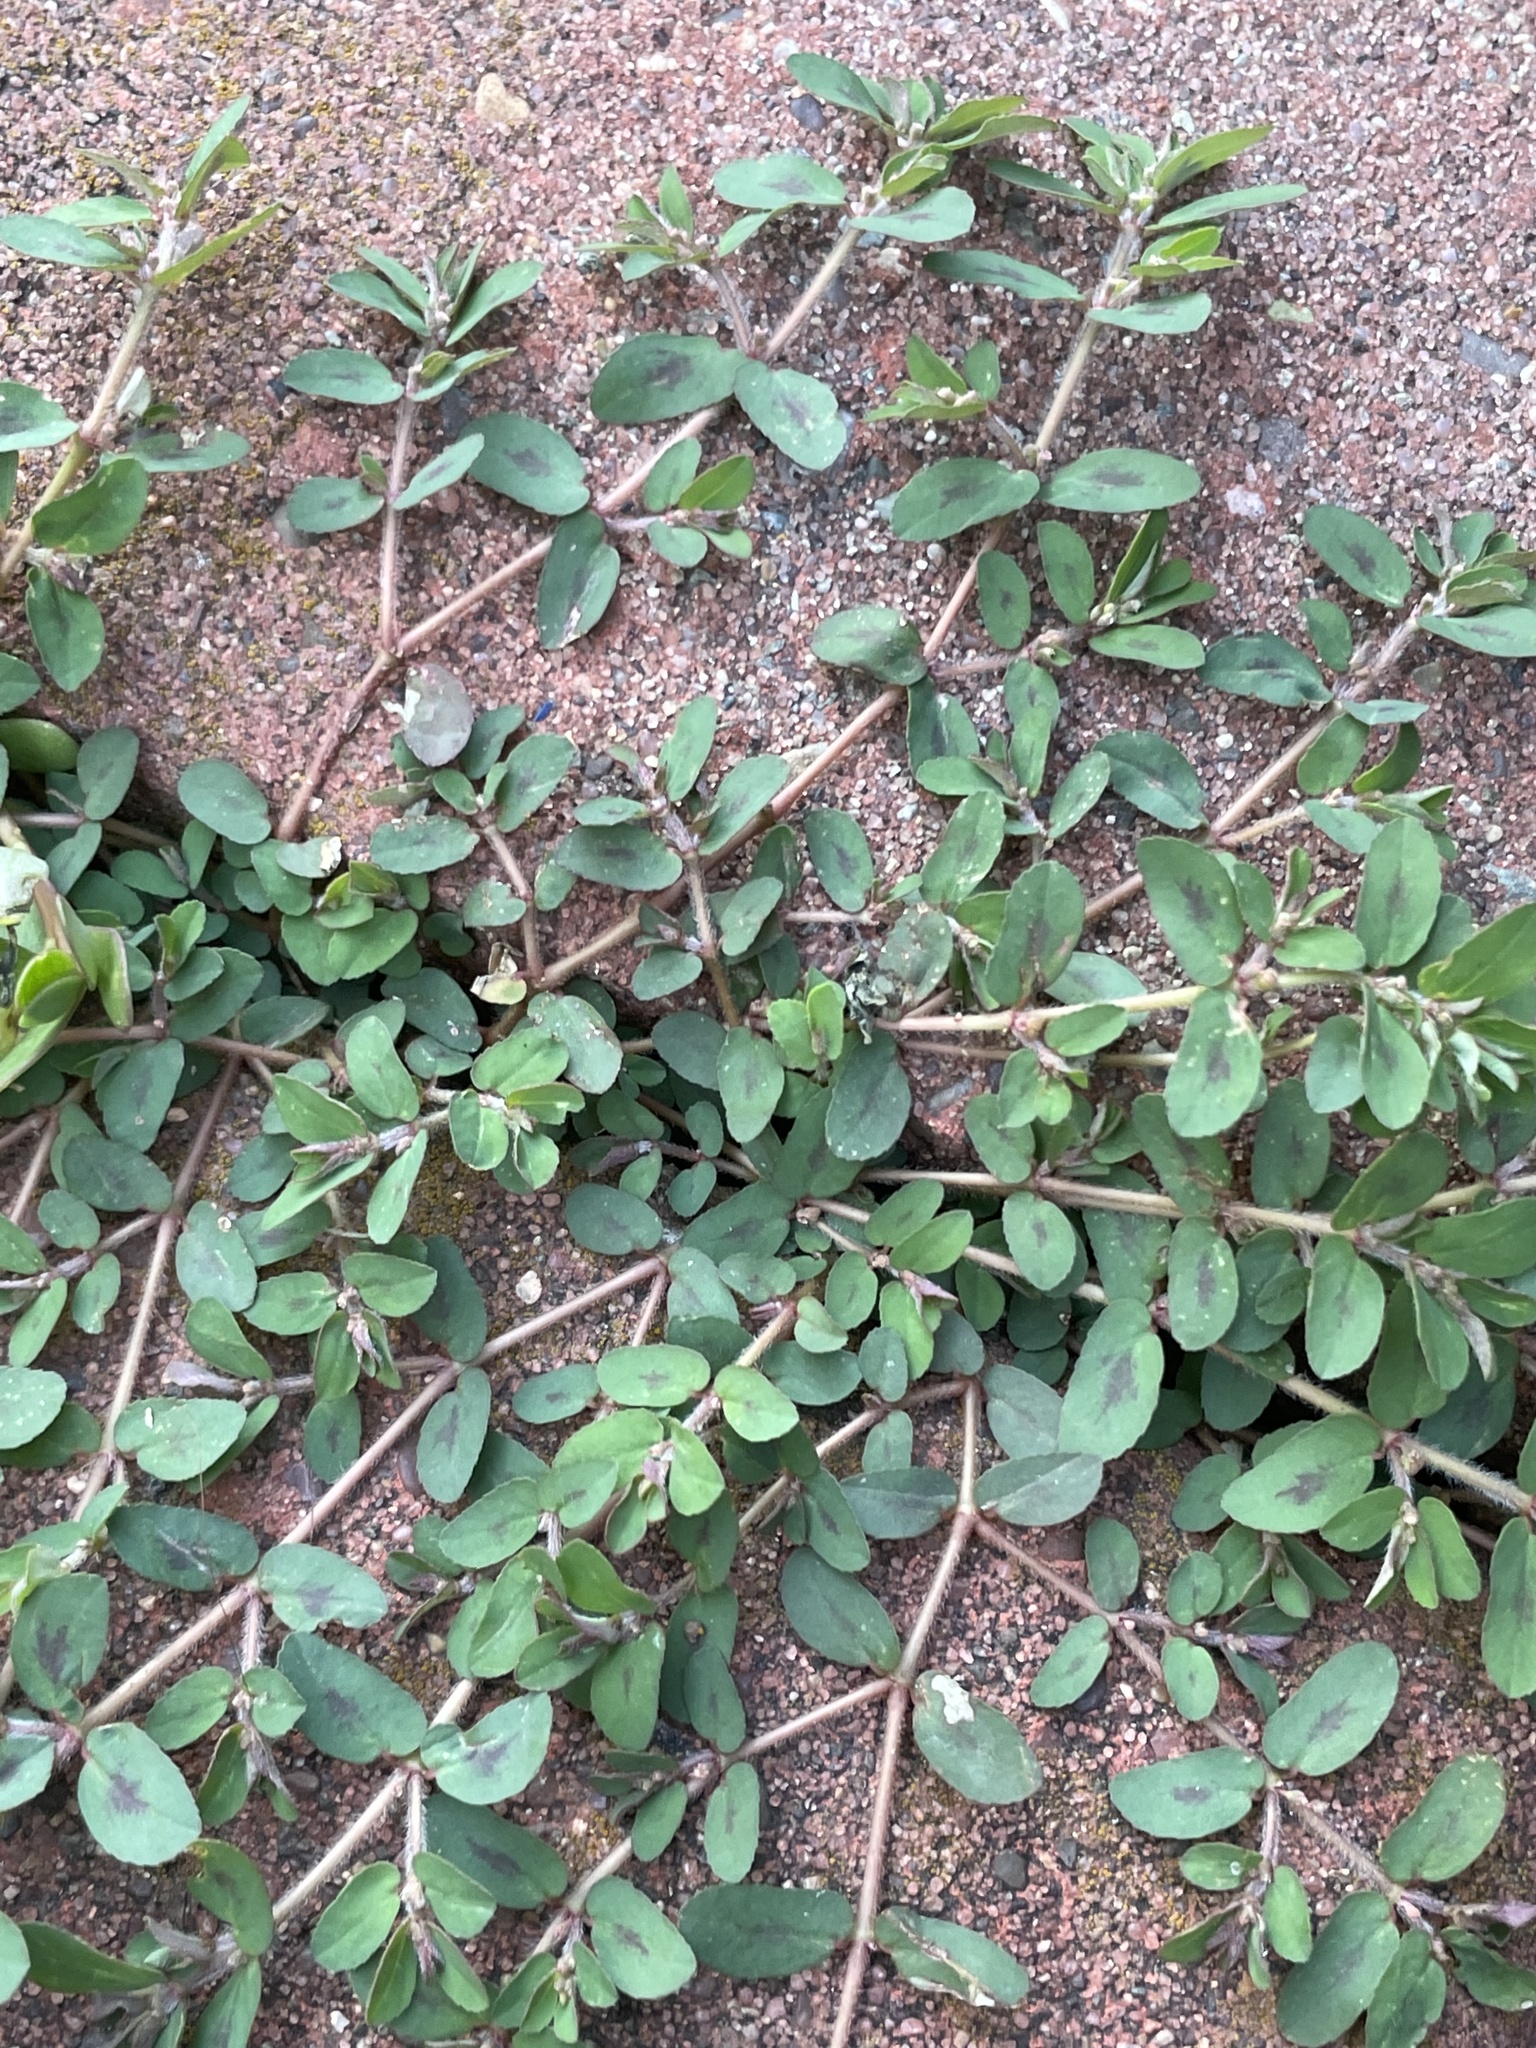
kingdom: Plantae
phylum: Tracheophyta
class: Magnoliopsida
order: Malpighiales
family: Euphorbiaceae
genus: Euphorbia
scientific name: Euphorbia maculata
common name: Spotted spurge
